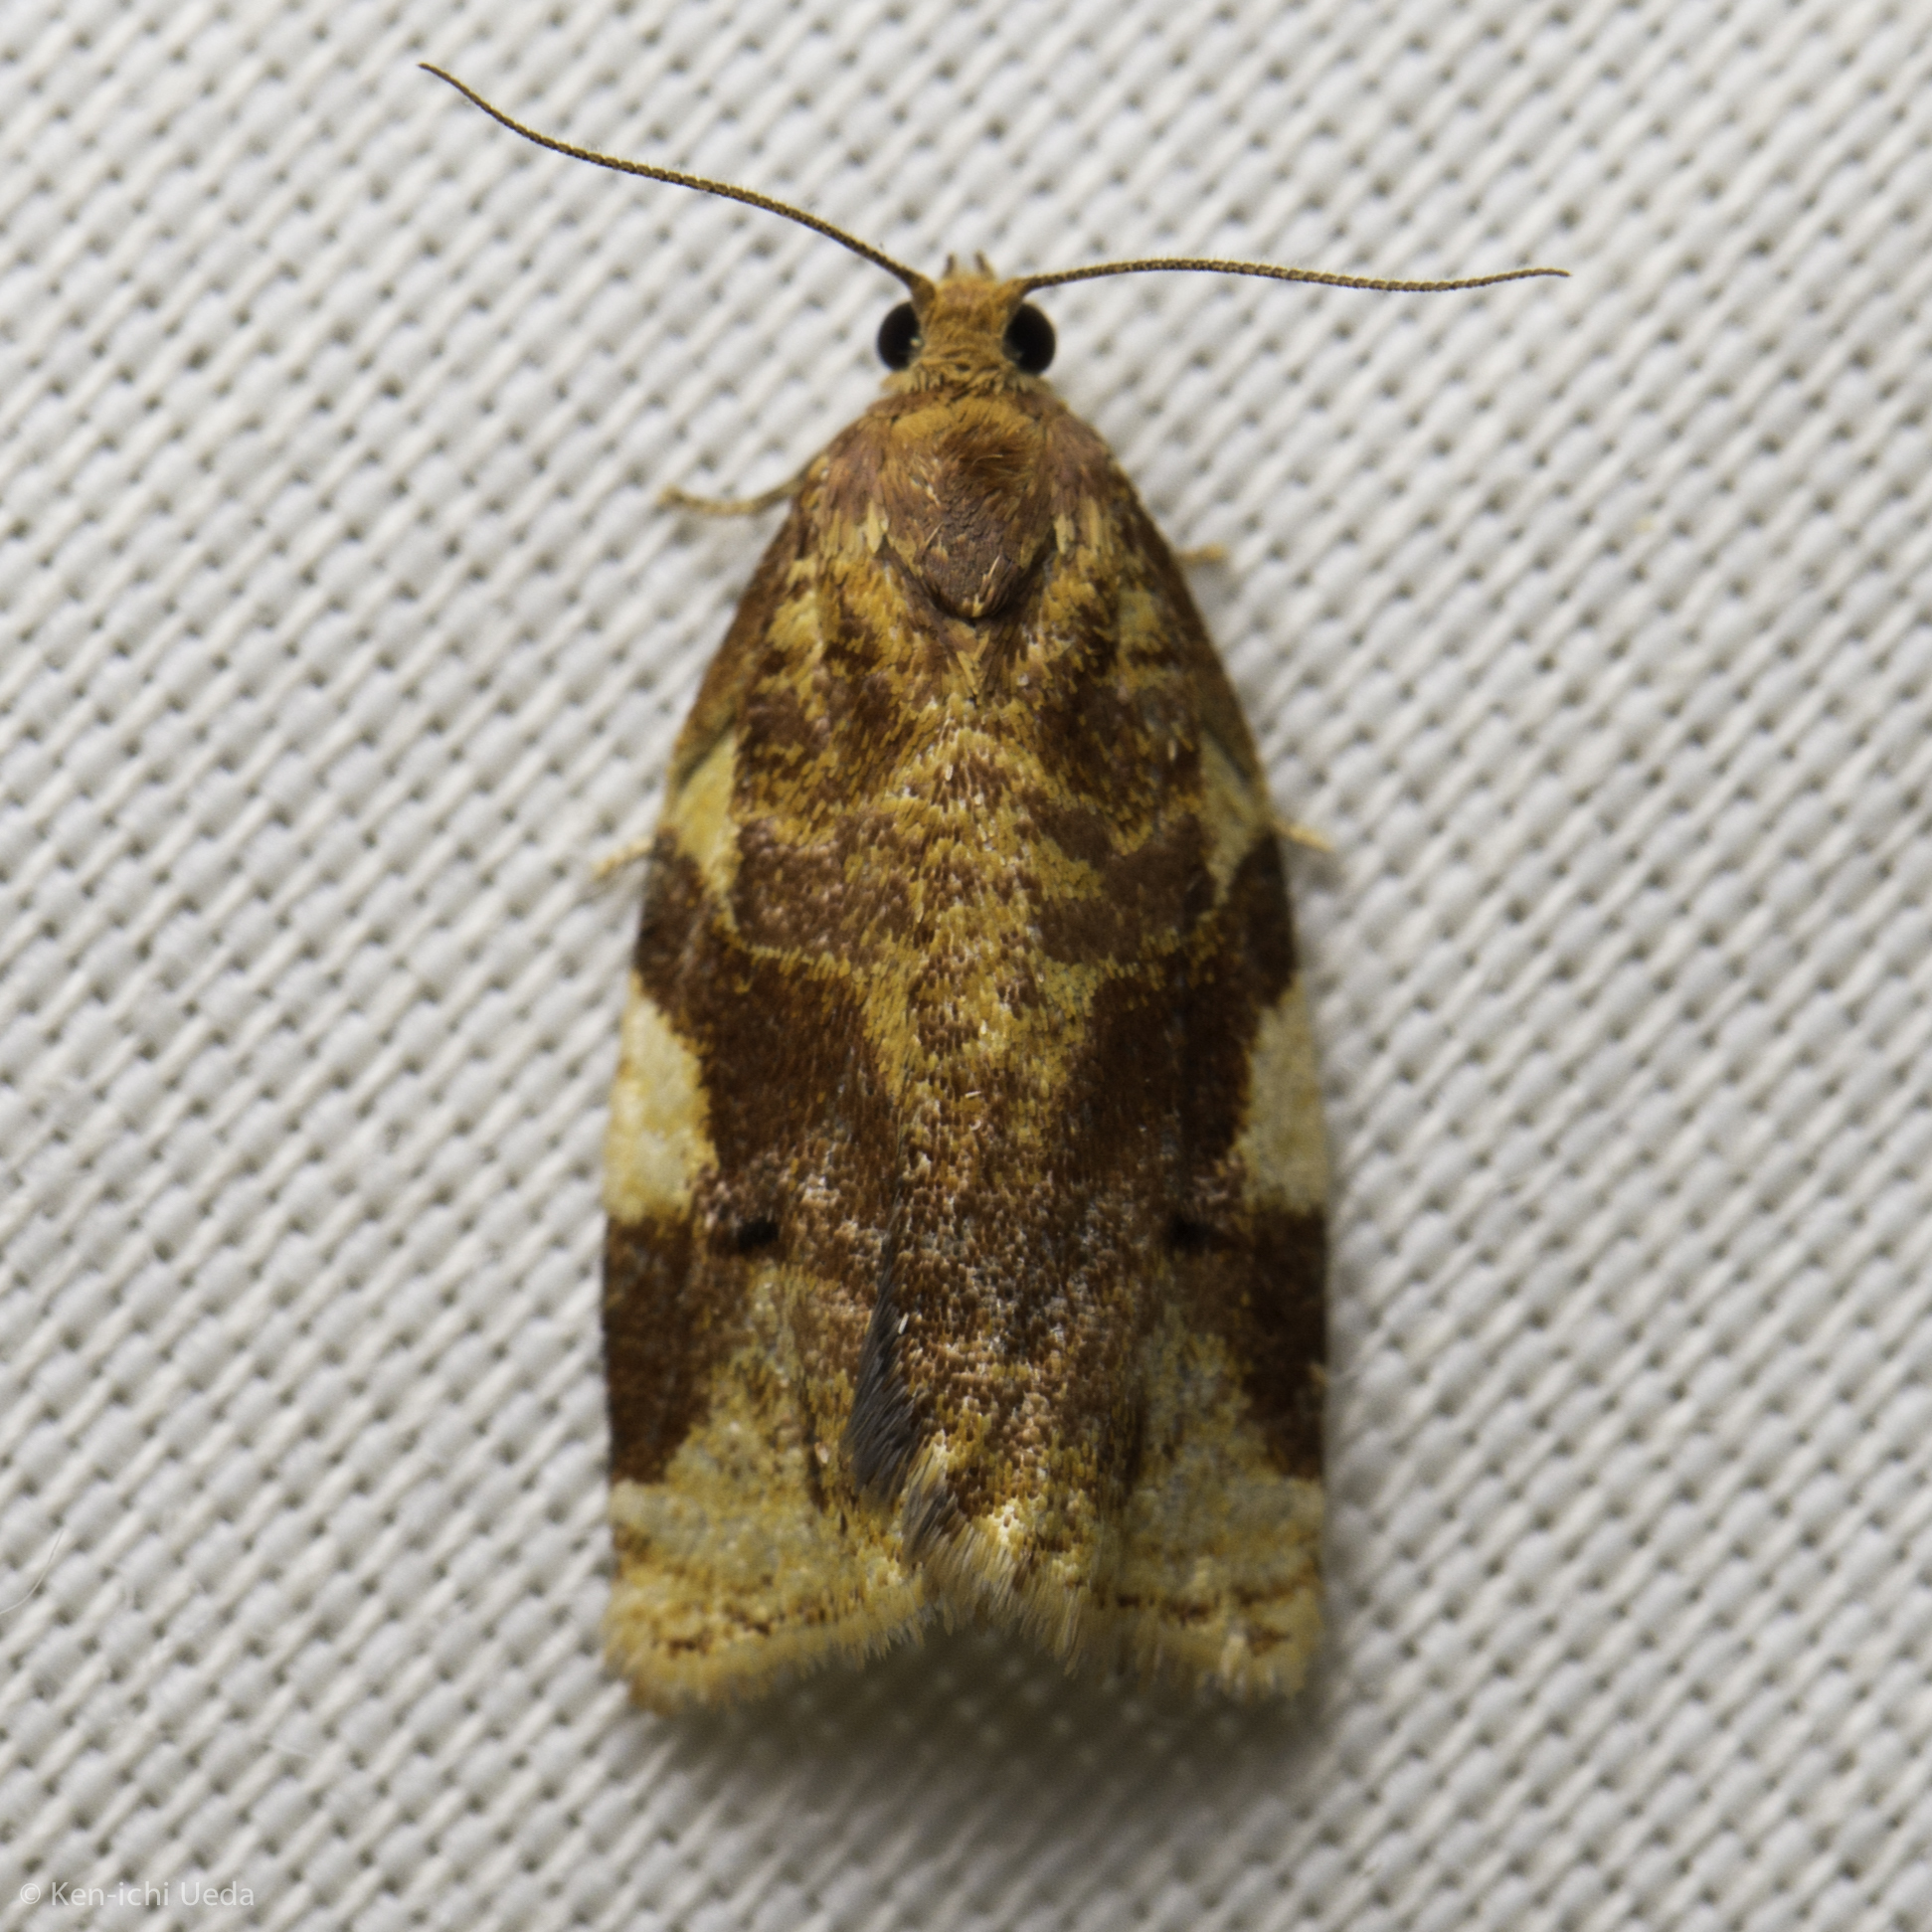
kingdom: Animalia
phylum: Arthropoda
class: Insecta
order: Lepidoptera
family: Tortricidae
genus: Archips
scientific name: Archips argyrospila
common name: Fruit-tree leafroller moth
